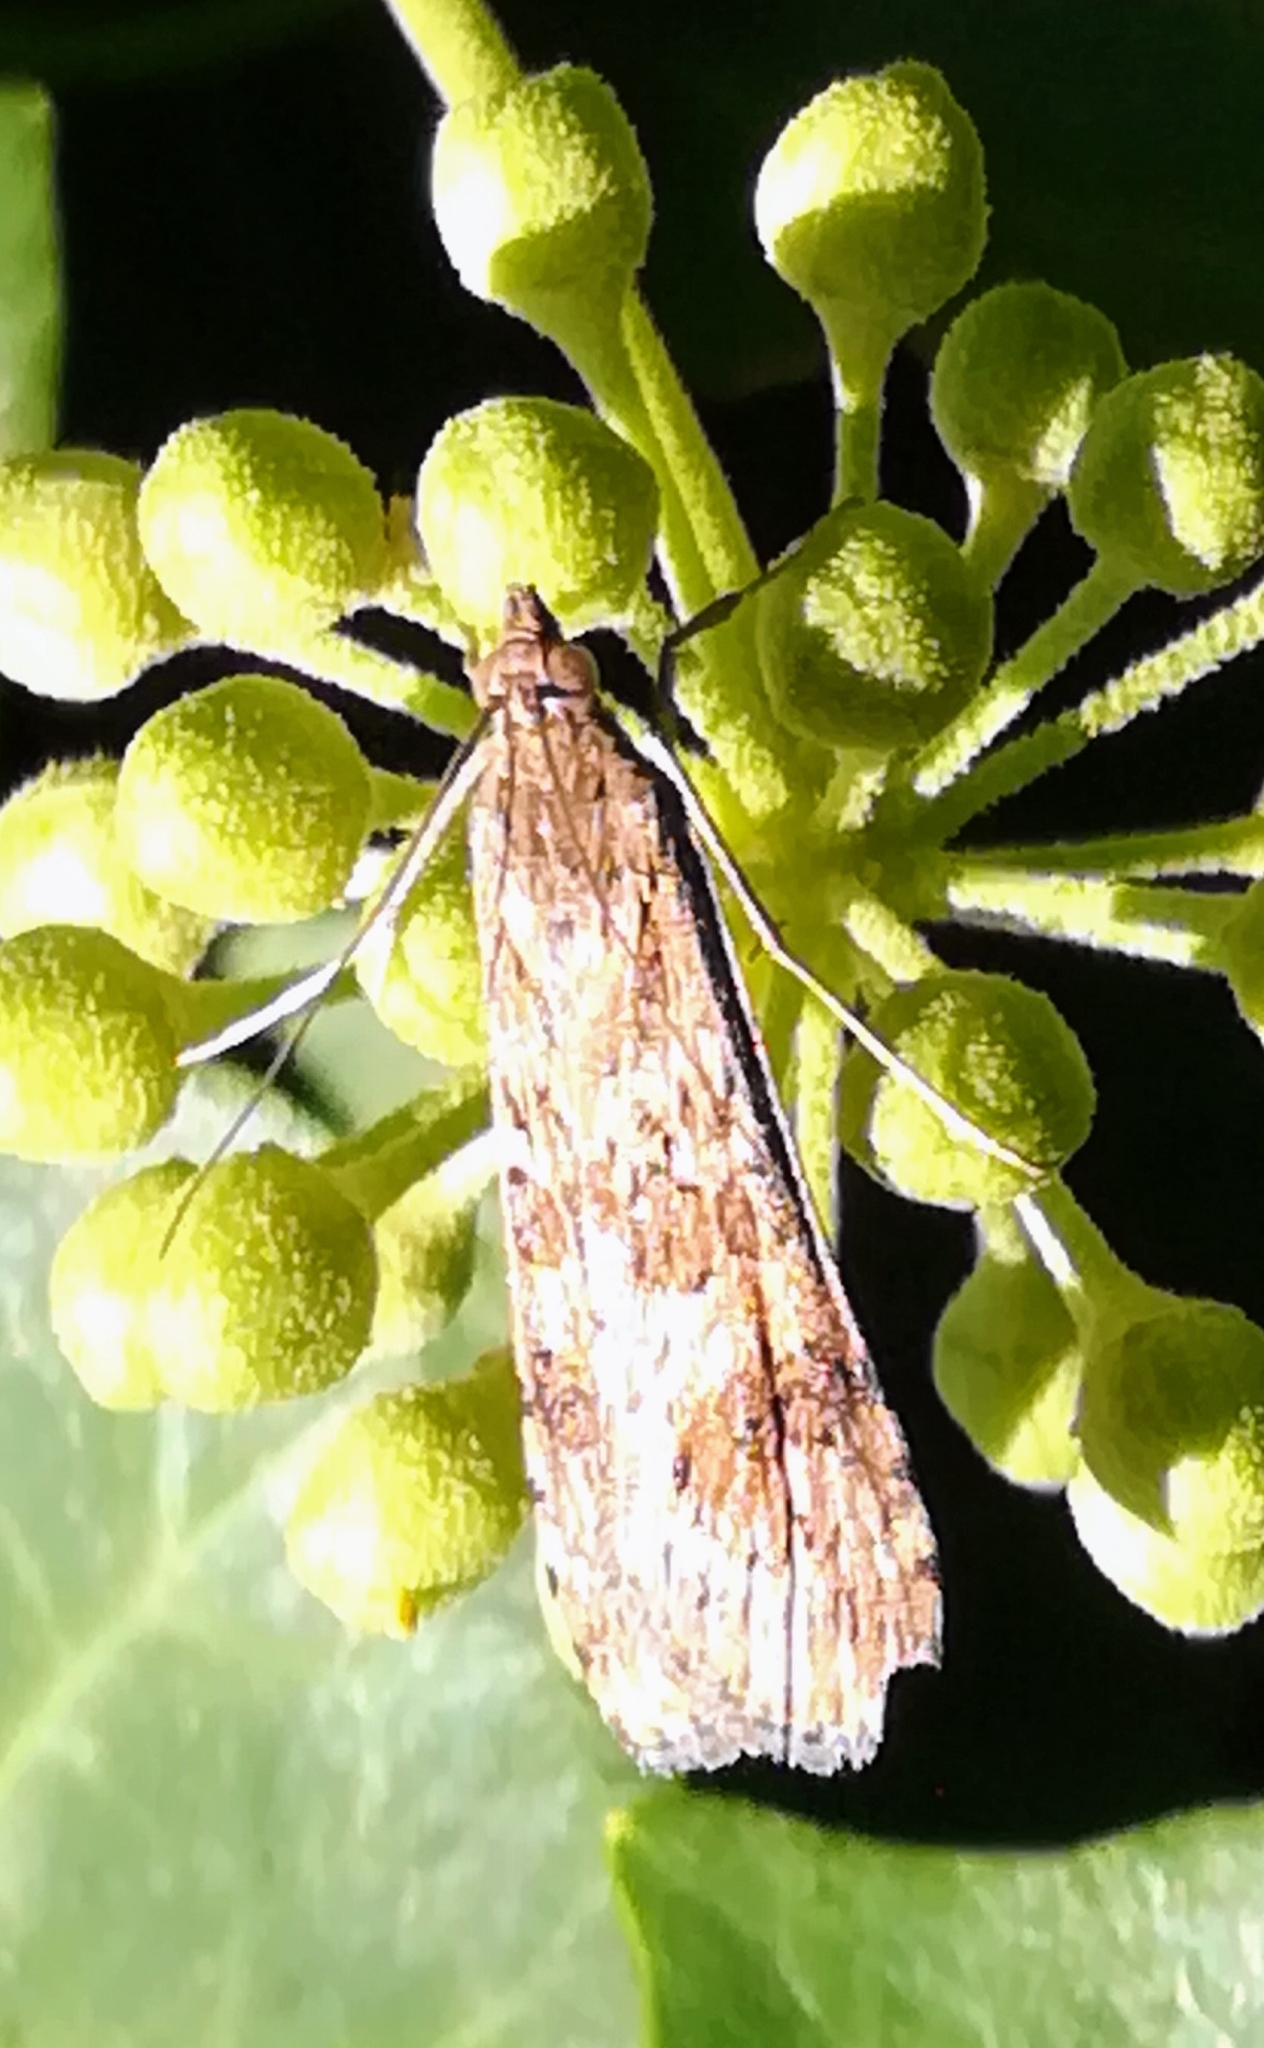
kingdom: Animalia
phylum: Arthropoda
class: Insecta
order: Lepidoptera
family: Crambidae
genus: Nomophila
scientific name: Nomophila noctuella
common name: Rush veneer
